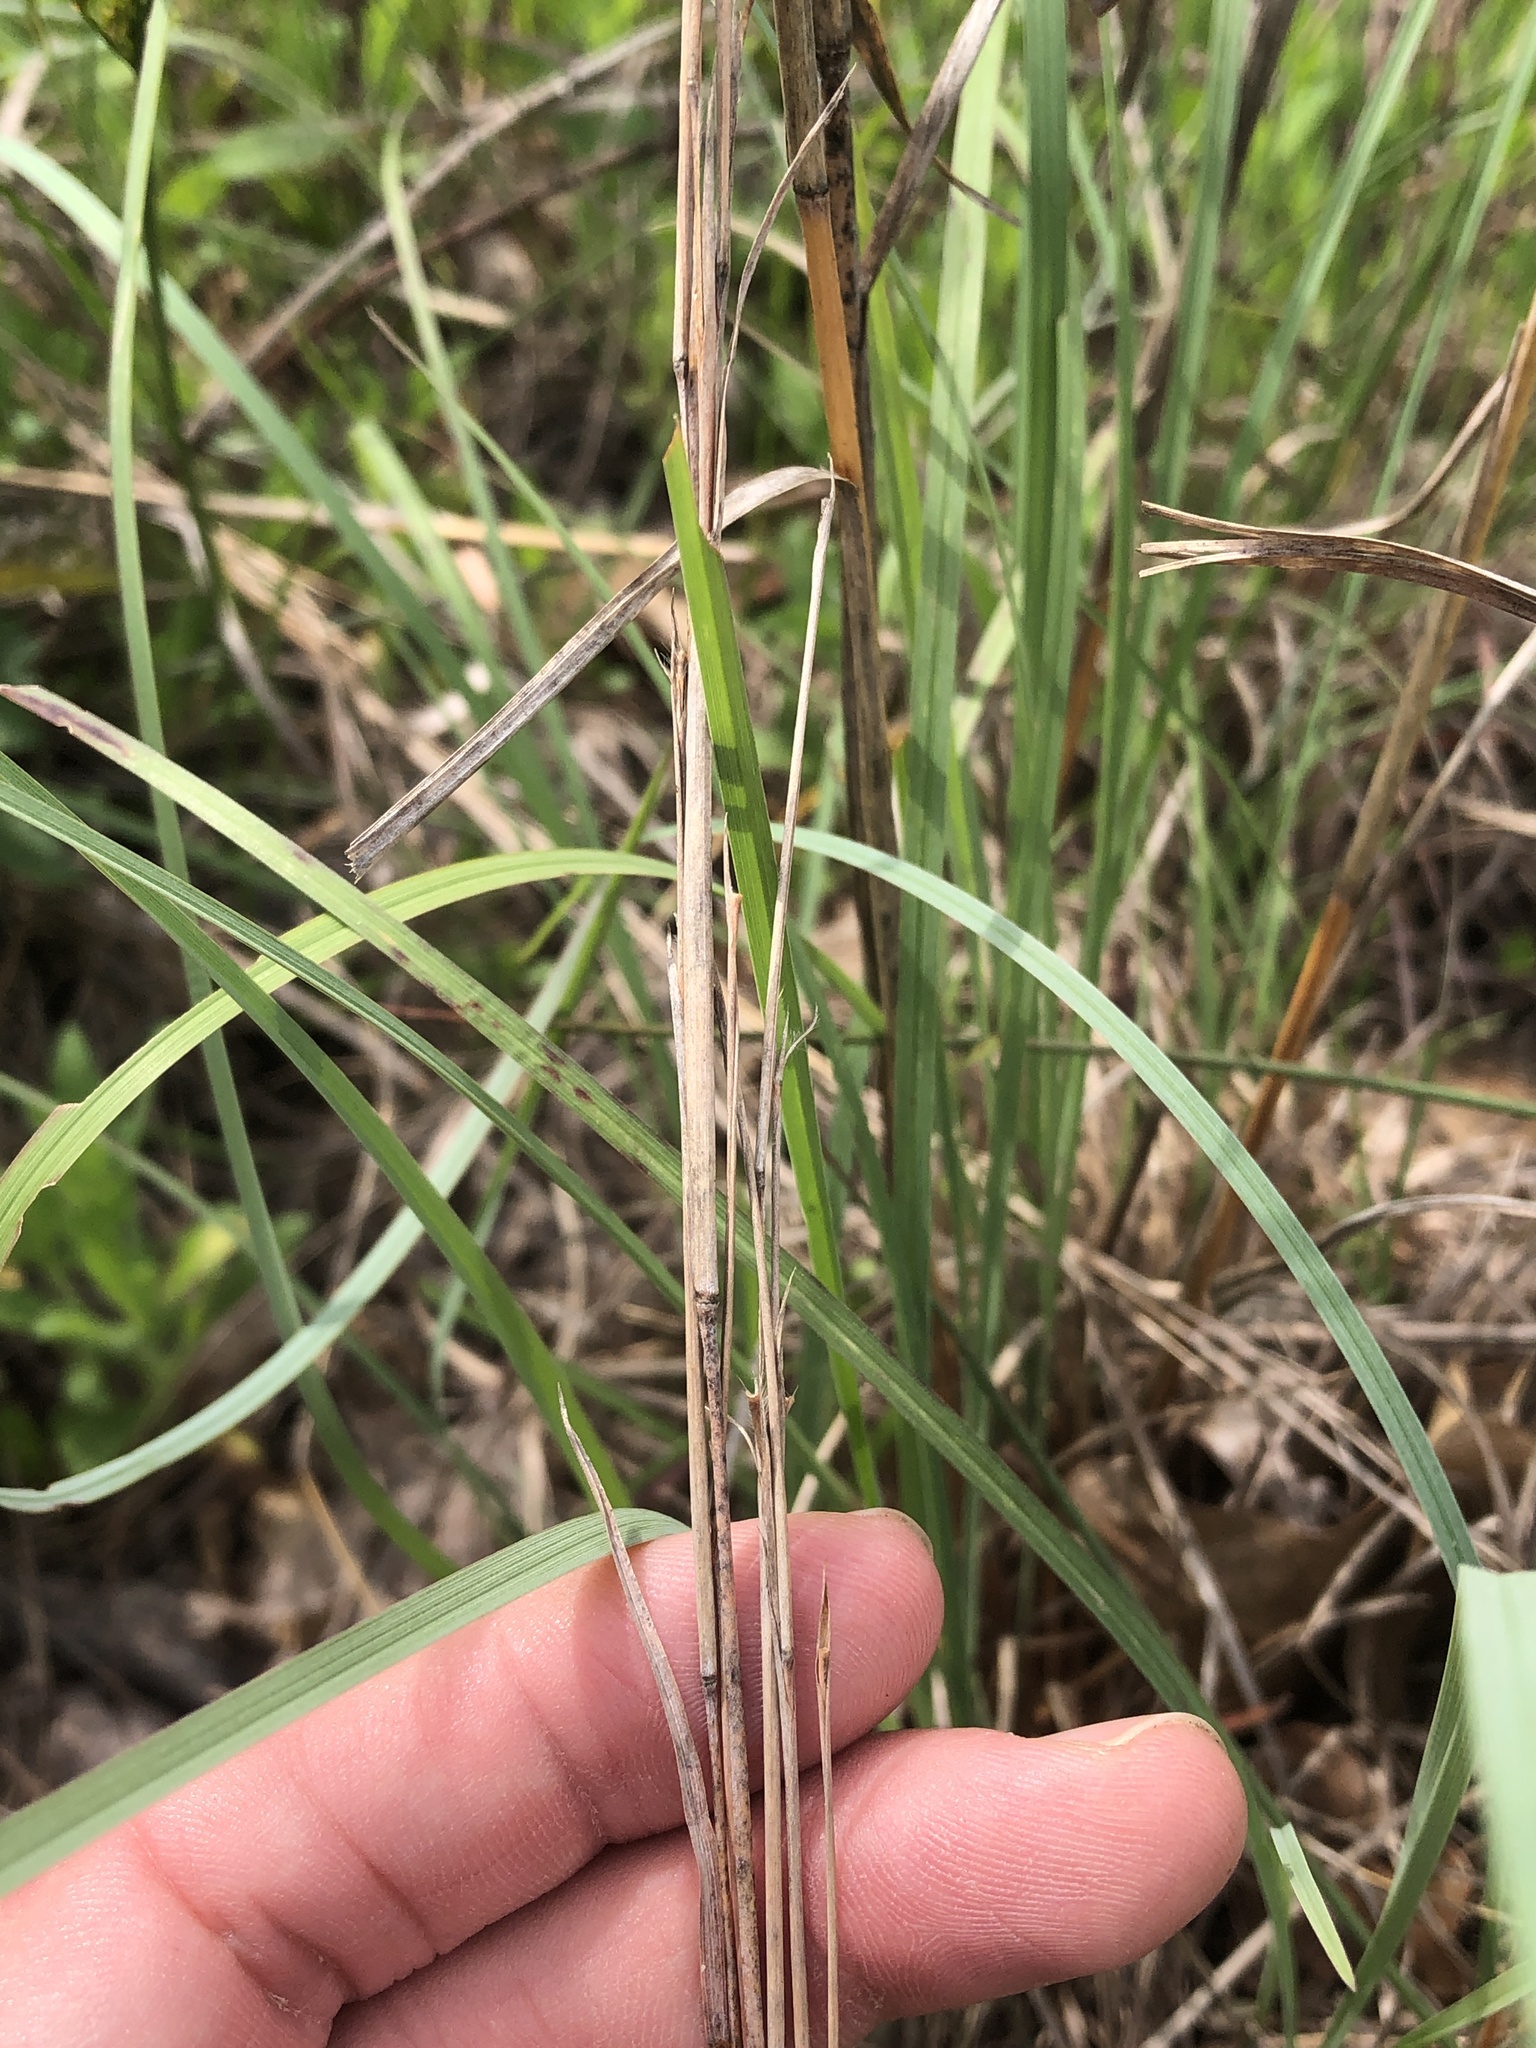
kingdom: Plantae
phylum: Tracheophyta
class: Liliopsida
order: Poales
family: Poaceae
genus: Schizachyrium
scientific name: Schizachyrium scoparium
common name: Little bluestem
